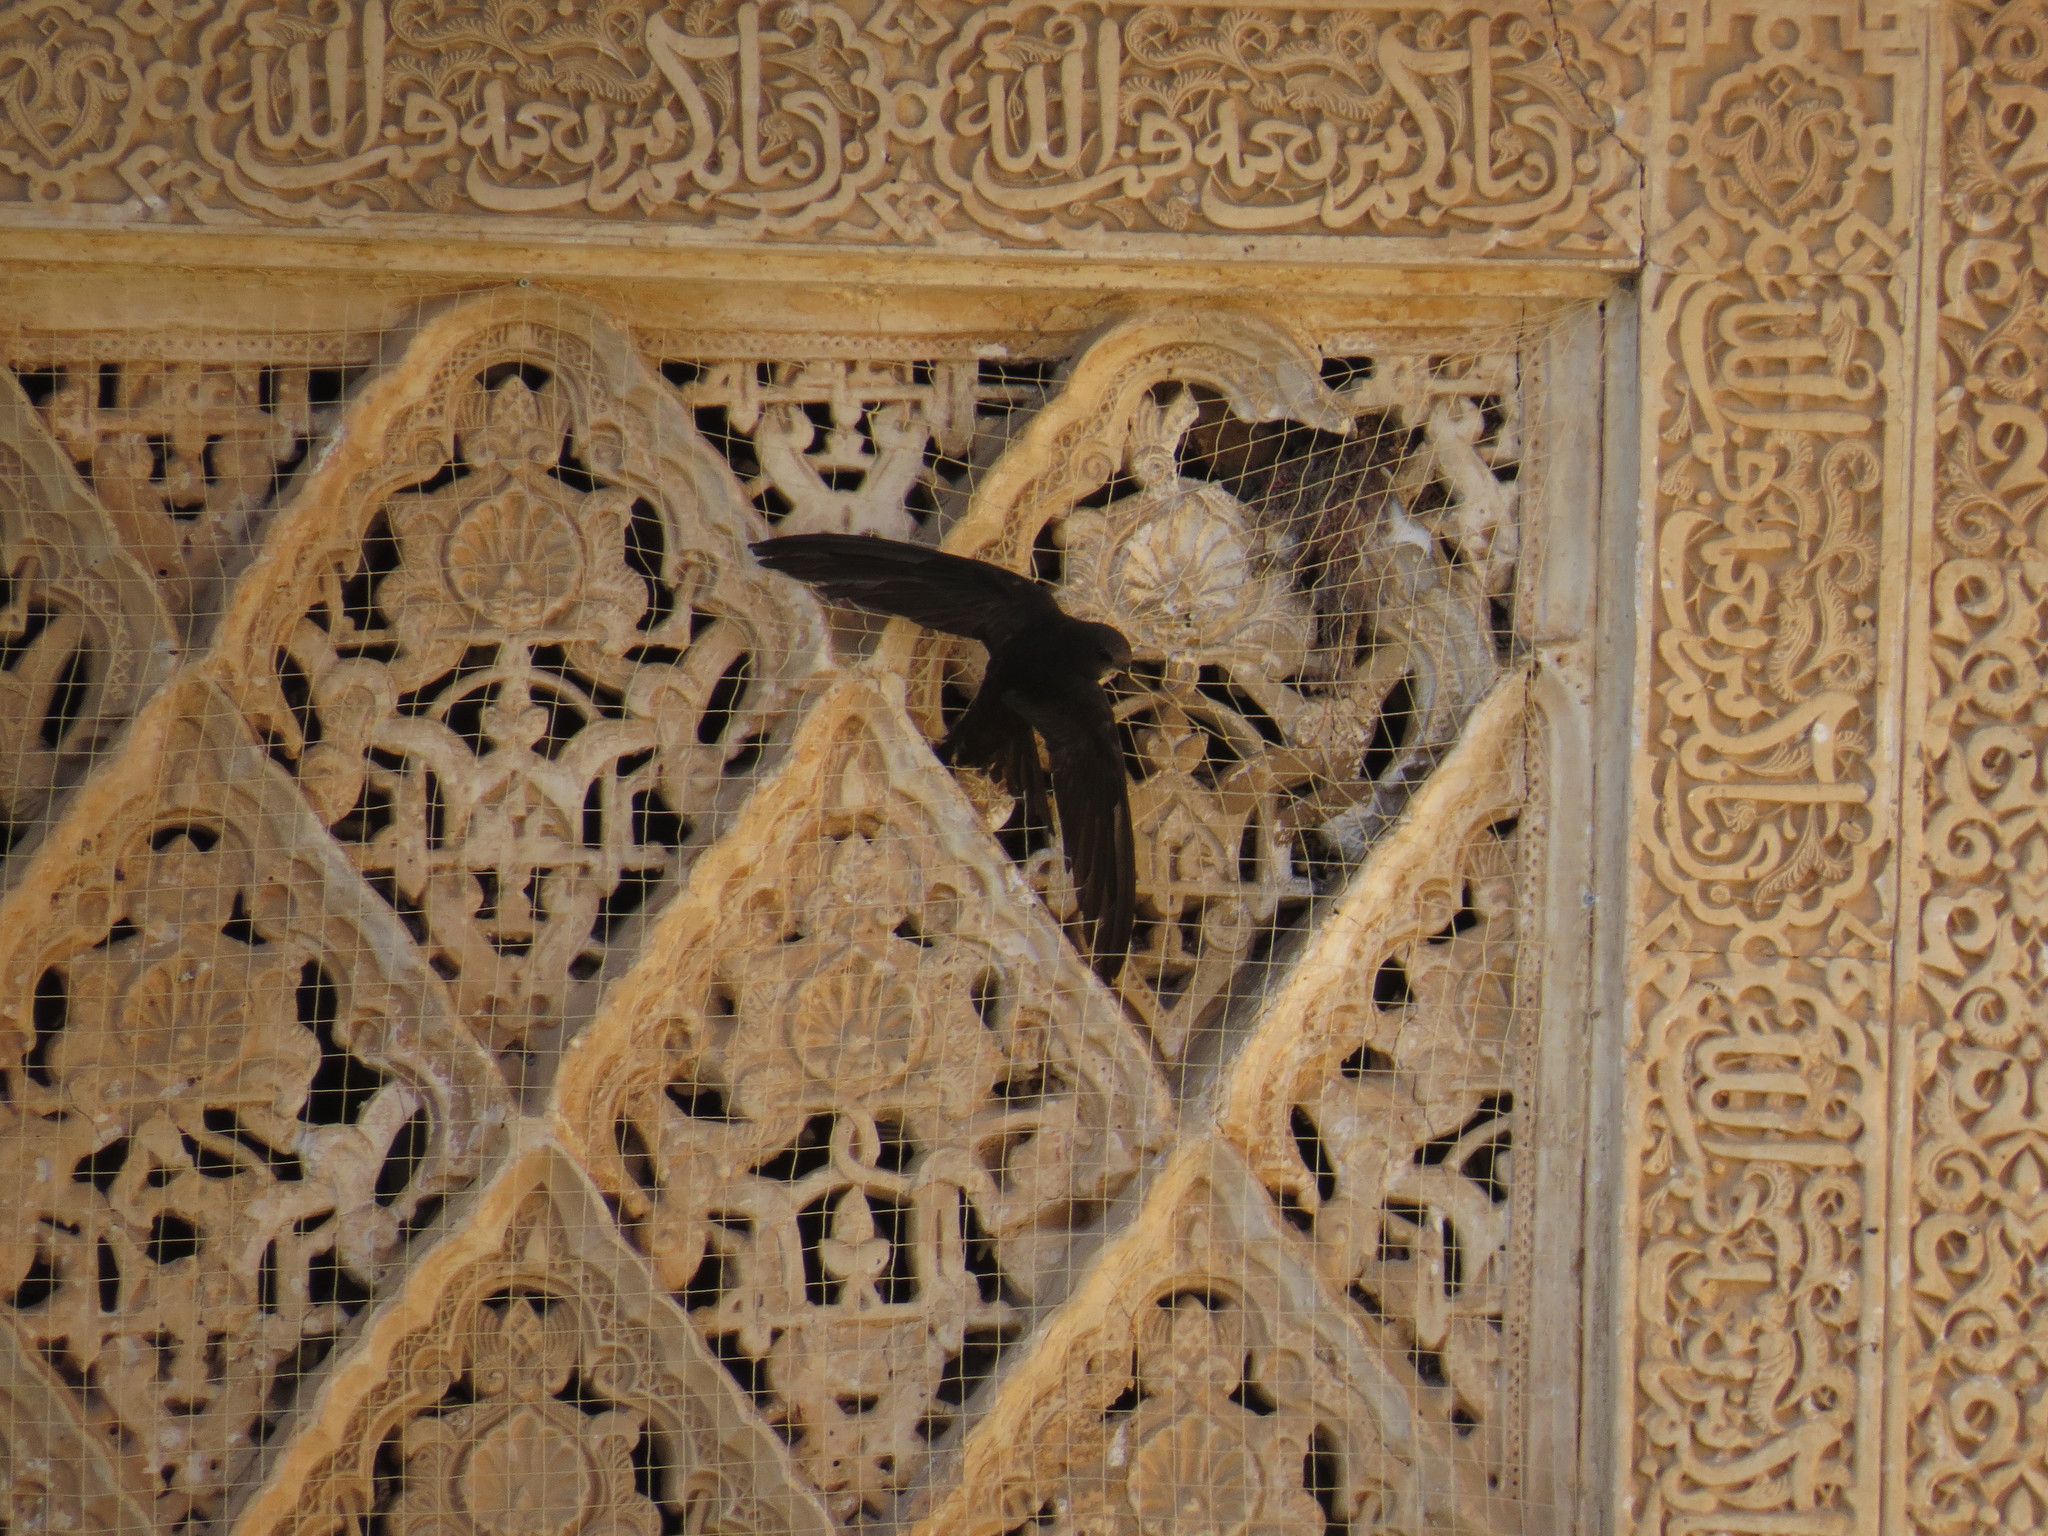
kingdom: Animalia
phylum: Chordata
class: Aves
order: Apodiformes
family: Apodidae
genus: Apus
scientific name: Apus apus
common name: Common swift
